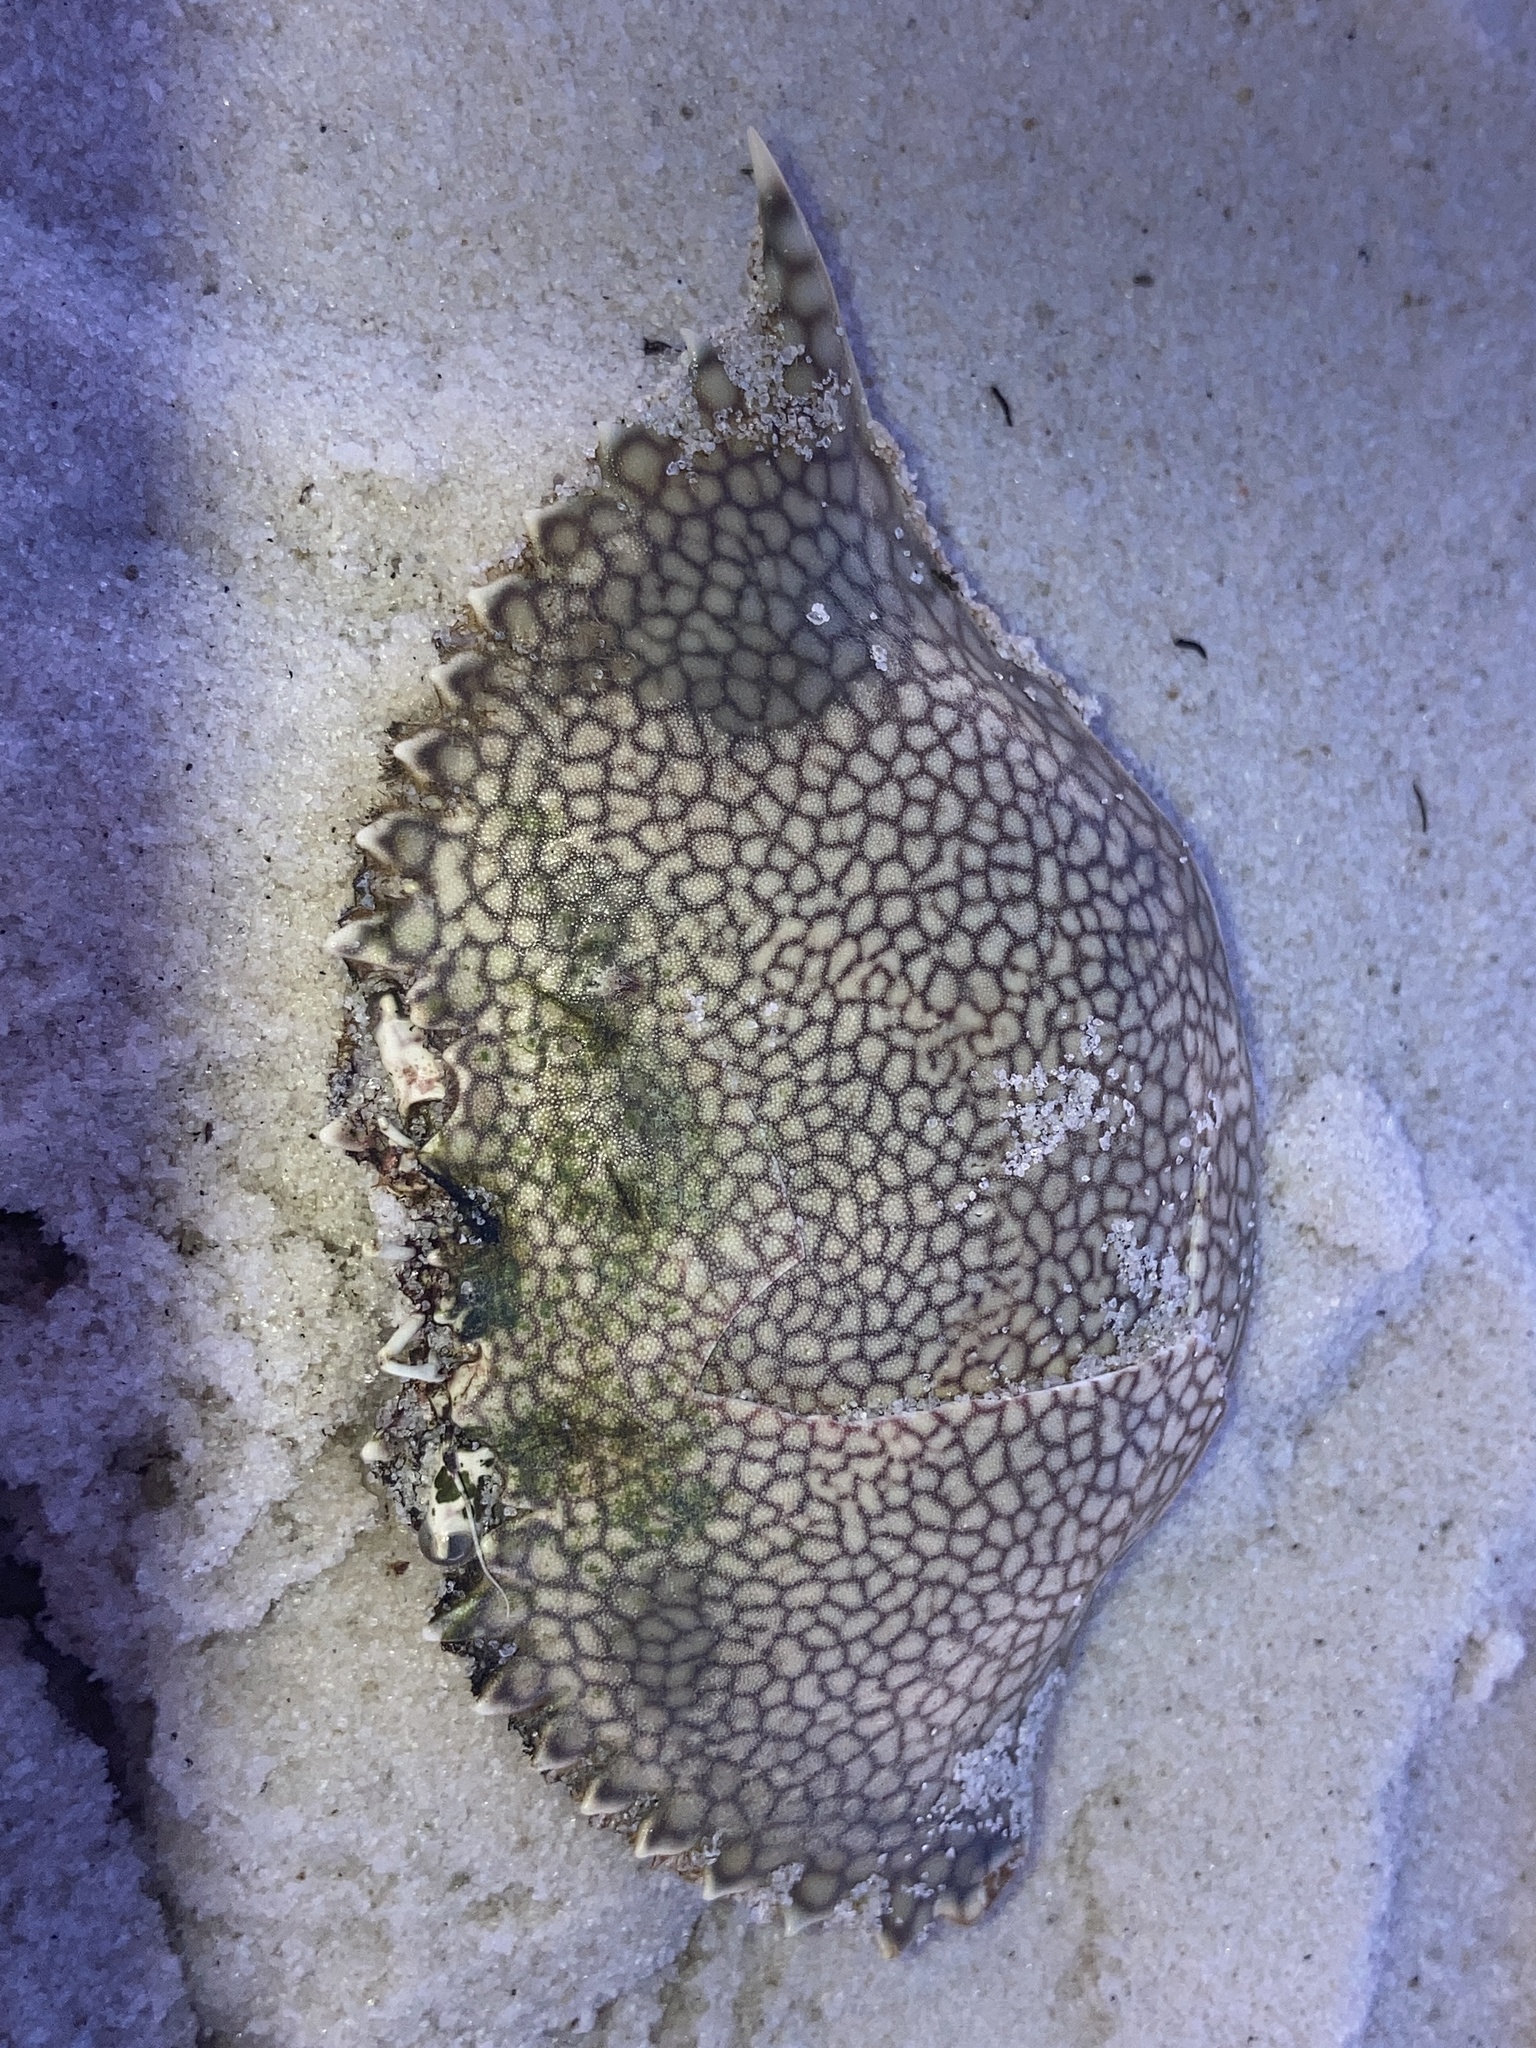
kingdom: Animalia
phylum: Arthropoda
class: Malacostraca
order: Decapoda
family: Portunidae
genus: Arenaeus
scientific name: Arenaeus cribrarius
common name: Speckled crab
